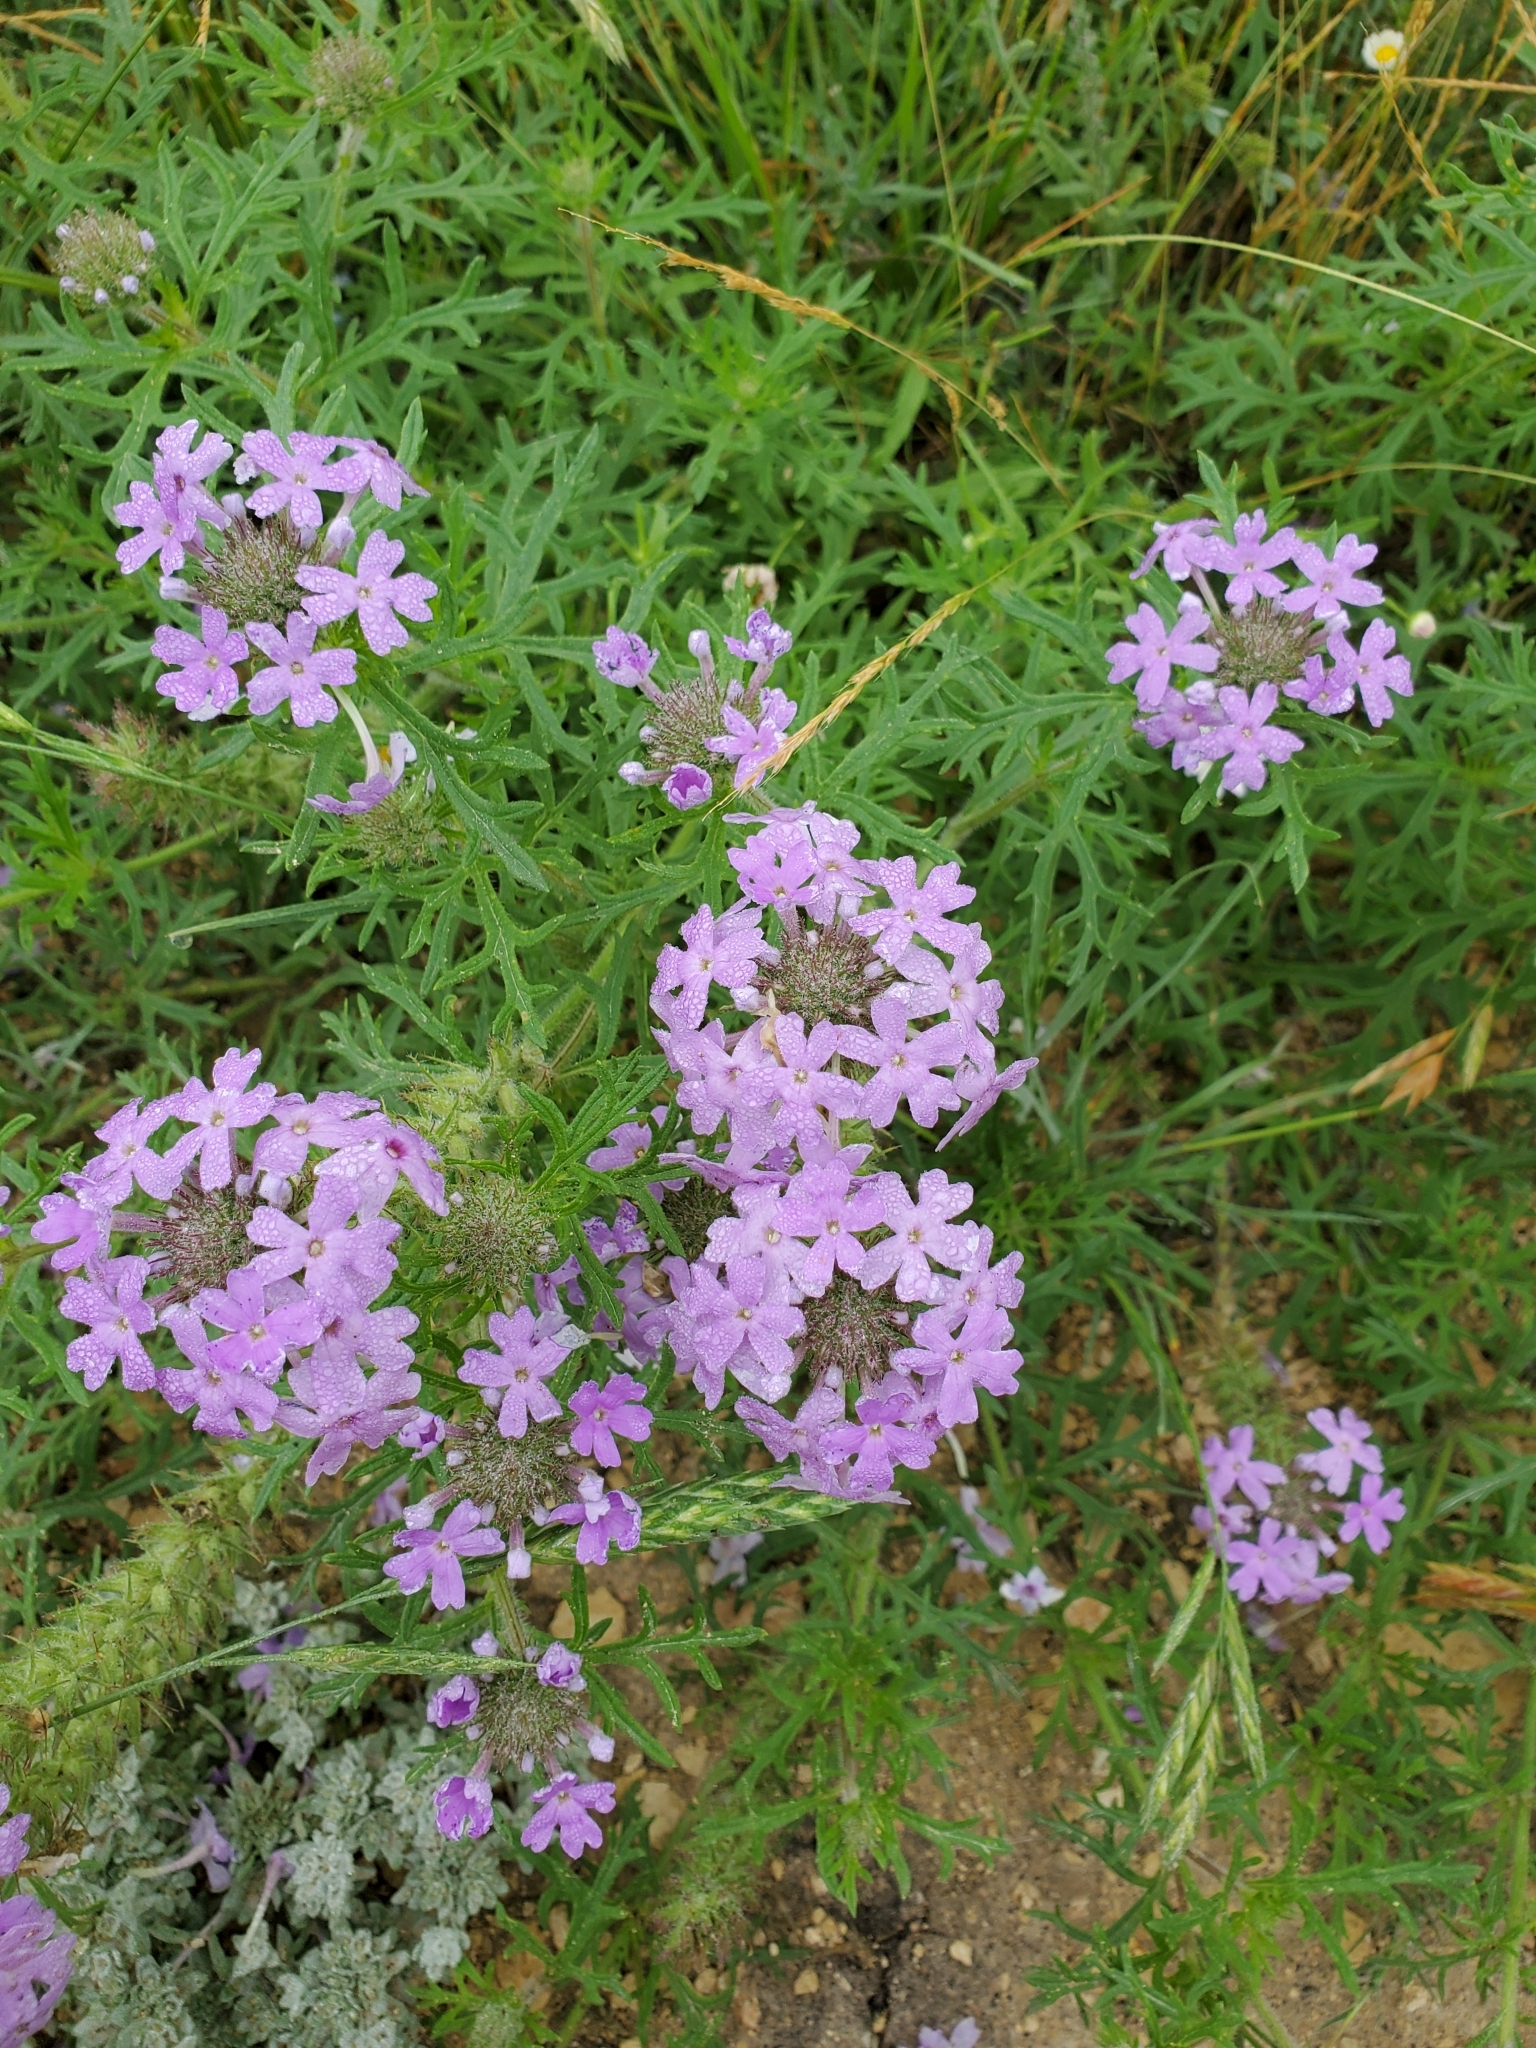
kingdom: Plantae
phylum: Tracheophyta
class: Magnoliopsida
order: Lamiales
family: Verbenaceae
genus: Verbena
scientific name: Verbena bipinnatifida
